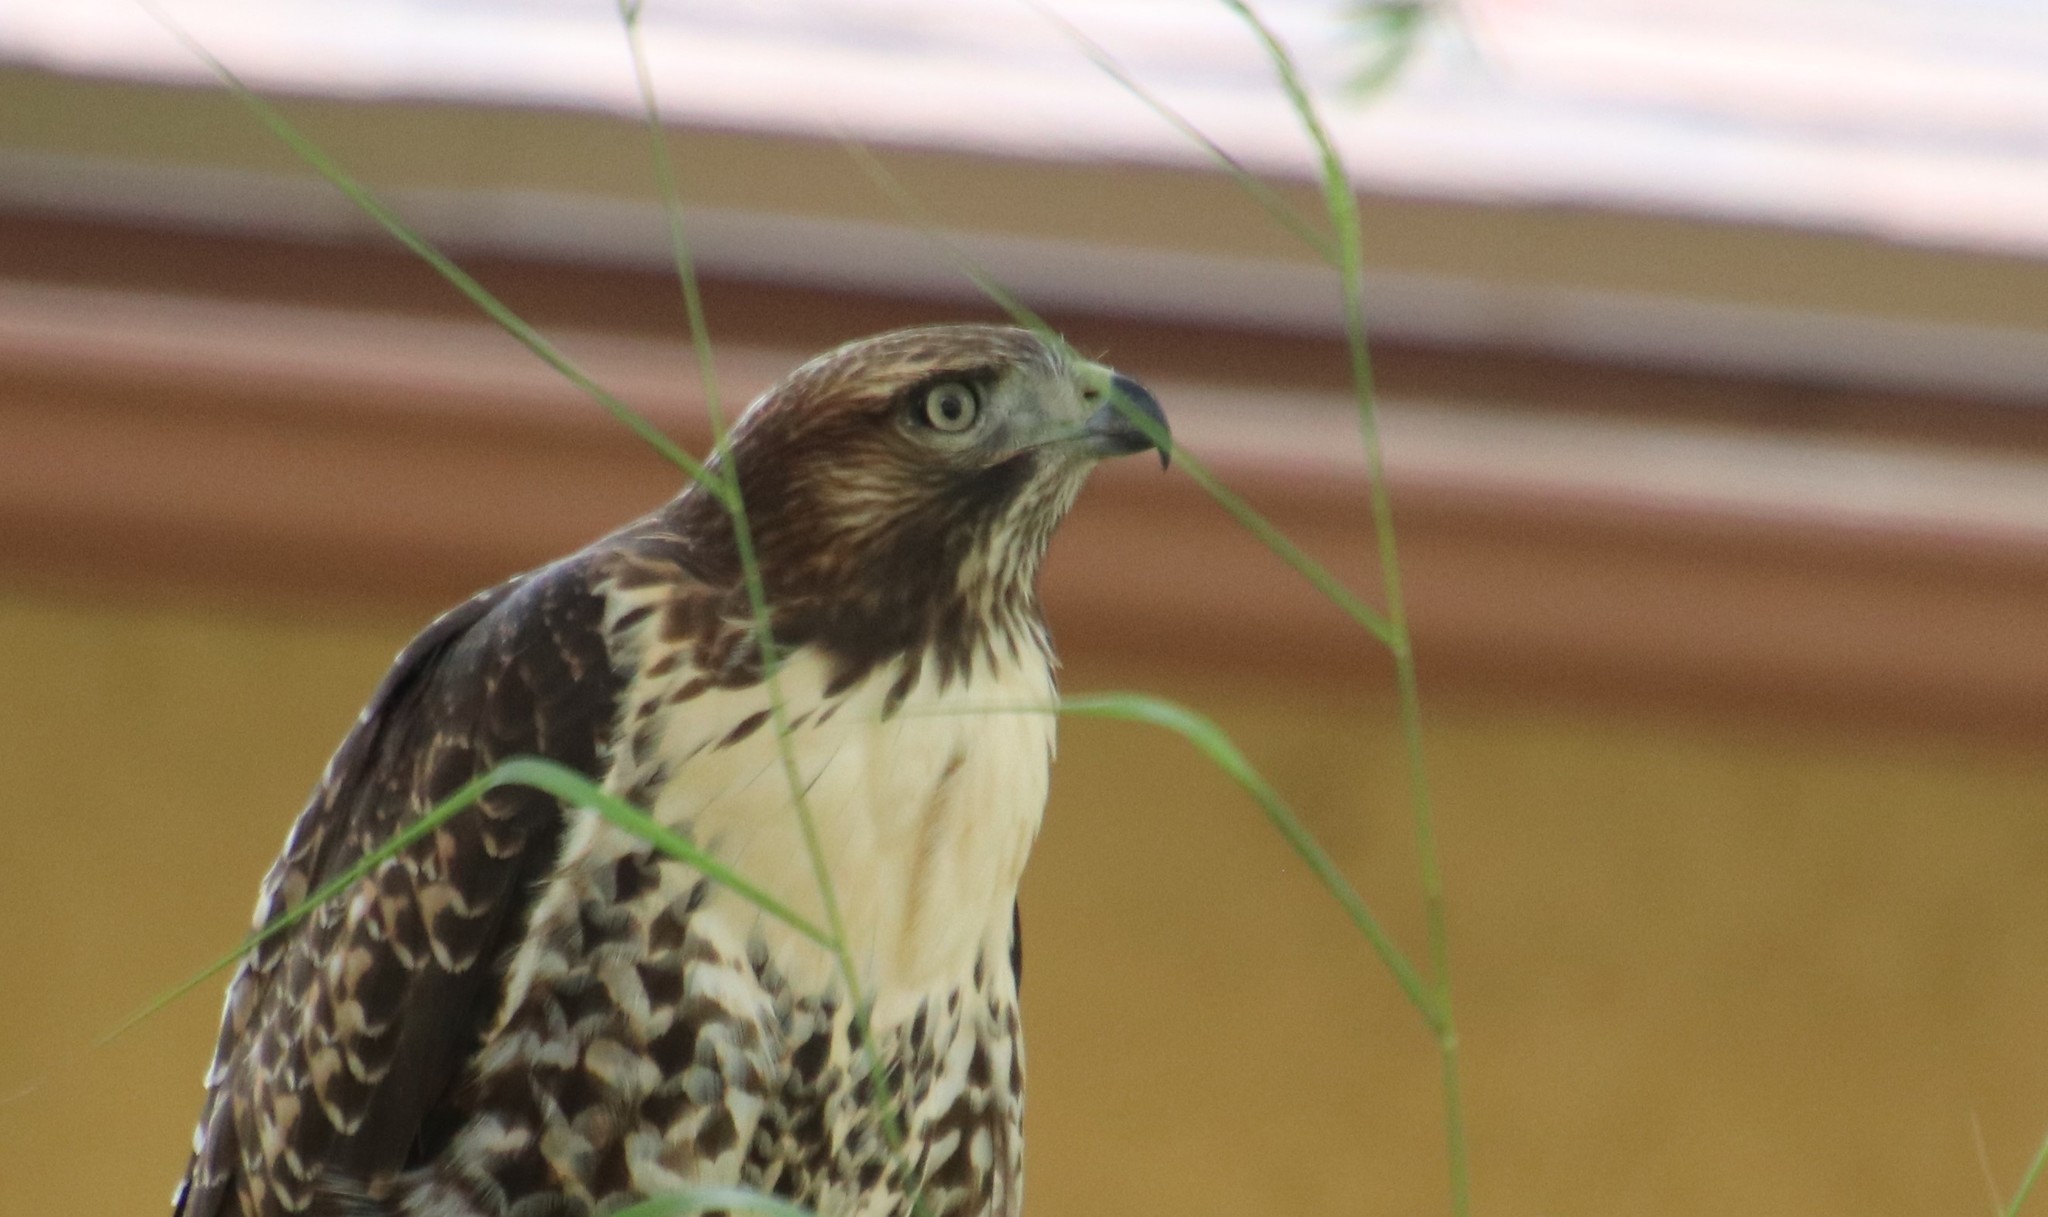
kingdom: Animalia
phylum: Chordata
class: Aves
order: Accipitriformes
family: Accipitridae
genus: Buteo
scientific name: Buteo jamaicensis
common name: Red-tailed hawk
